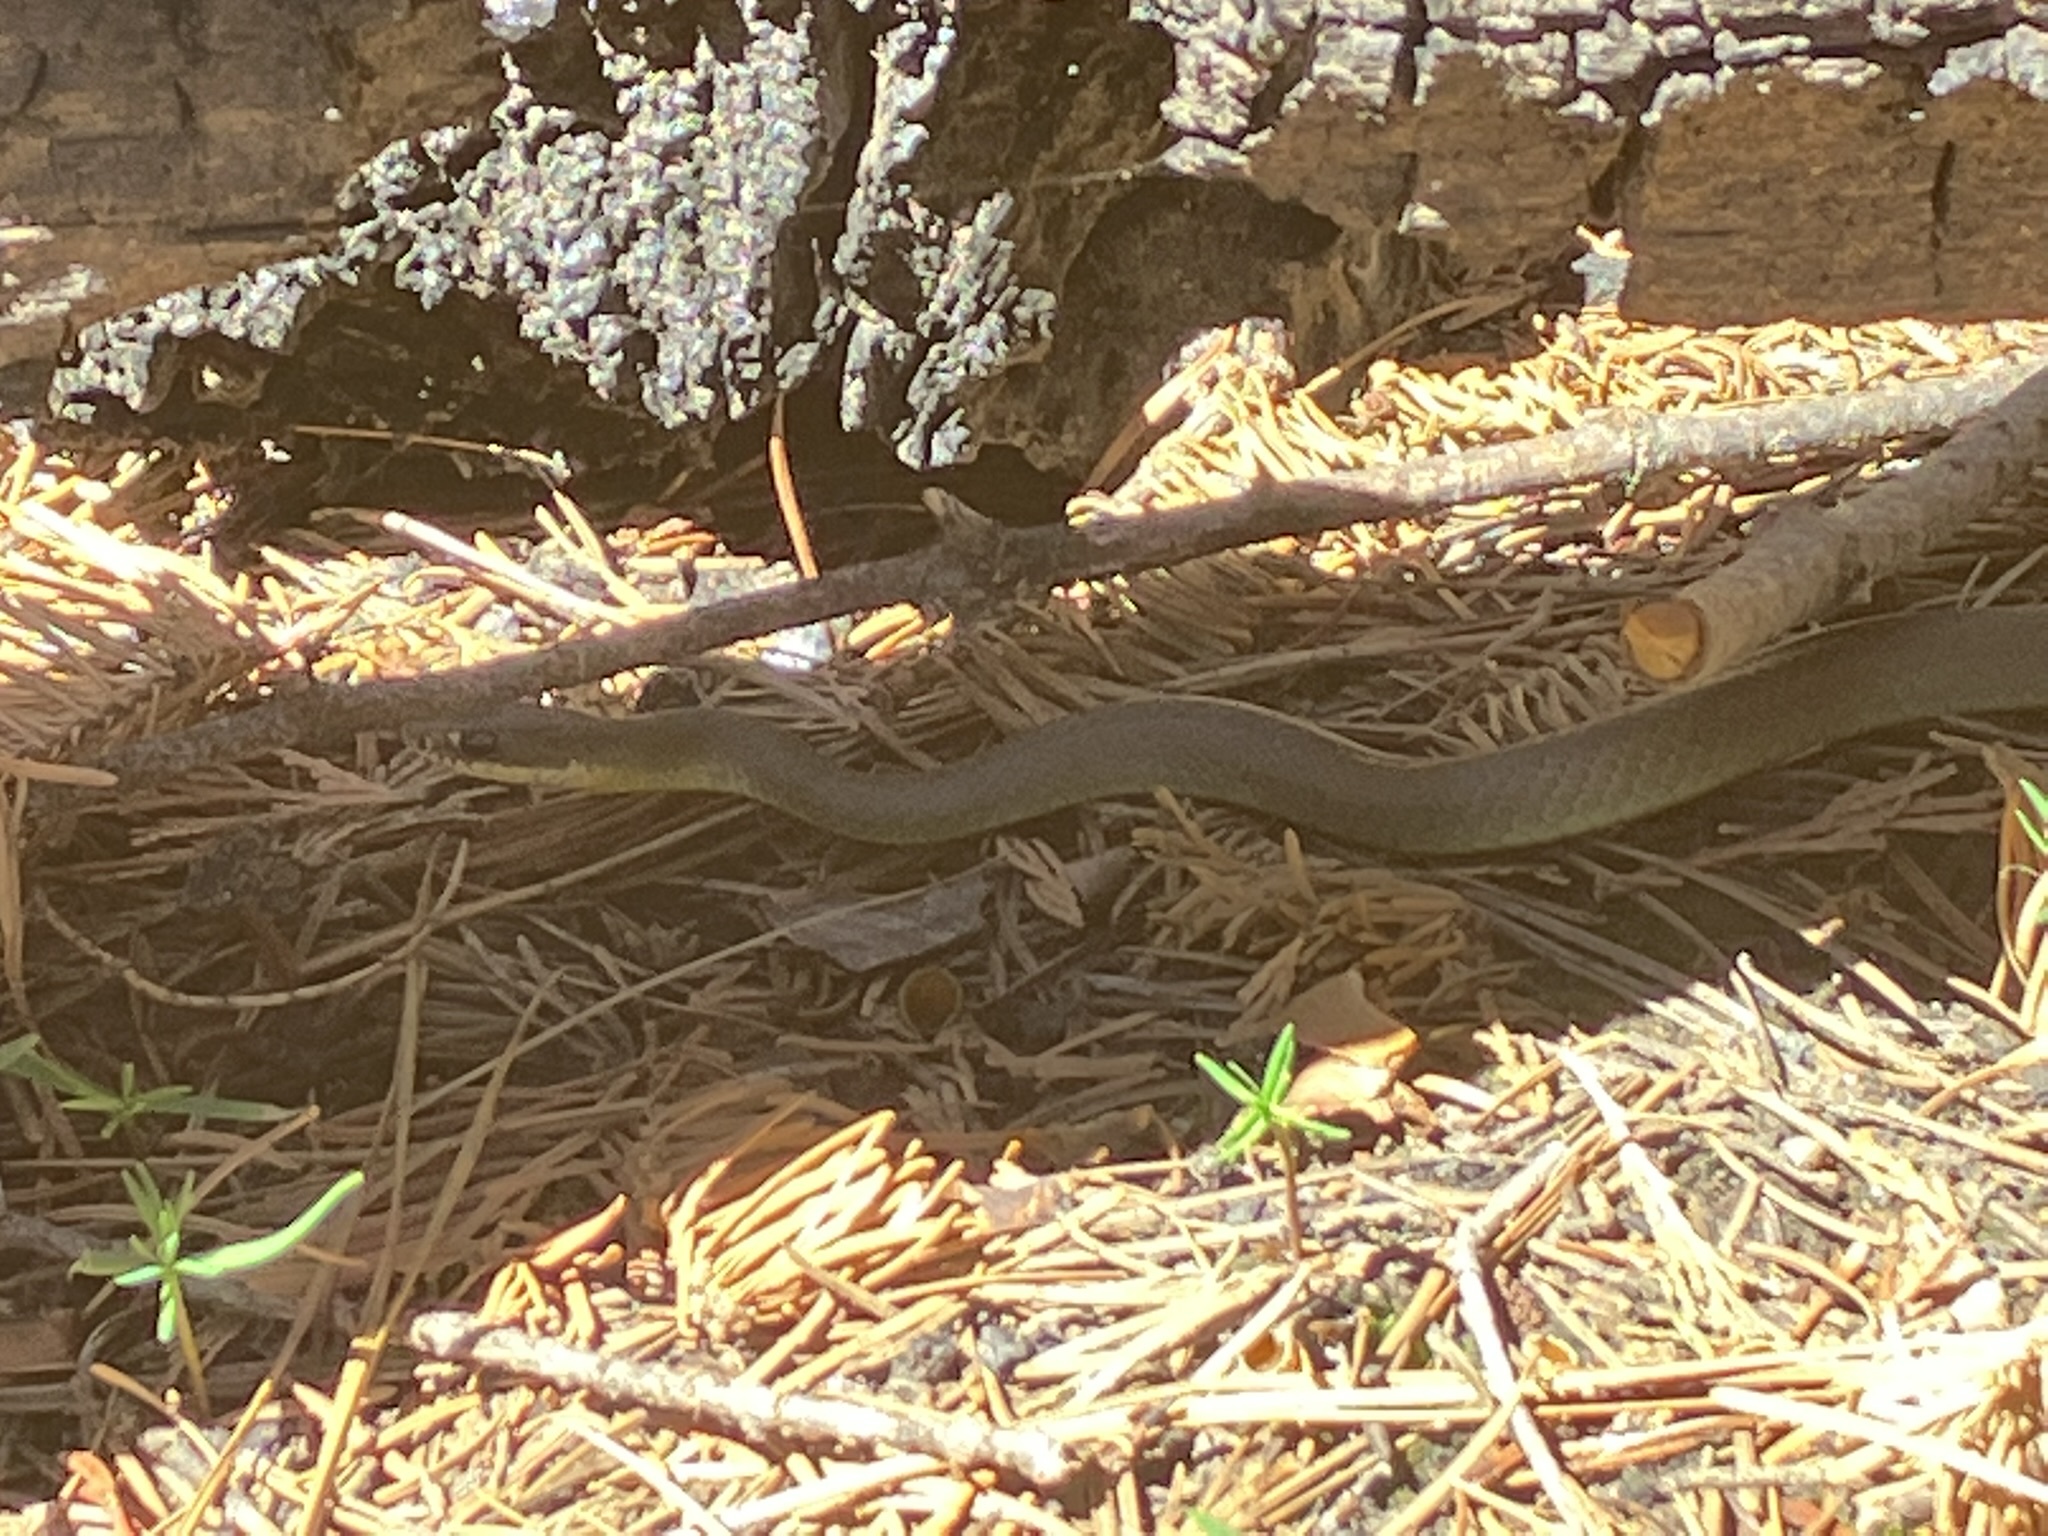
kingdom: Animalia
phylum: Chordata
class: Squamata
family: Colubridae
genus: Coluber
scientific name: Coluber constrictor
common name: Eastern racer
